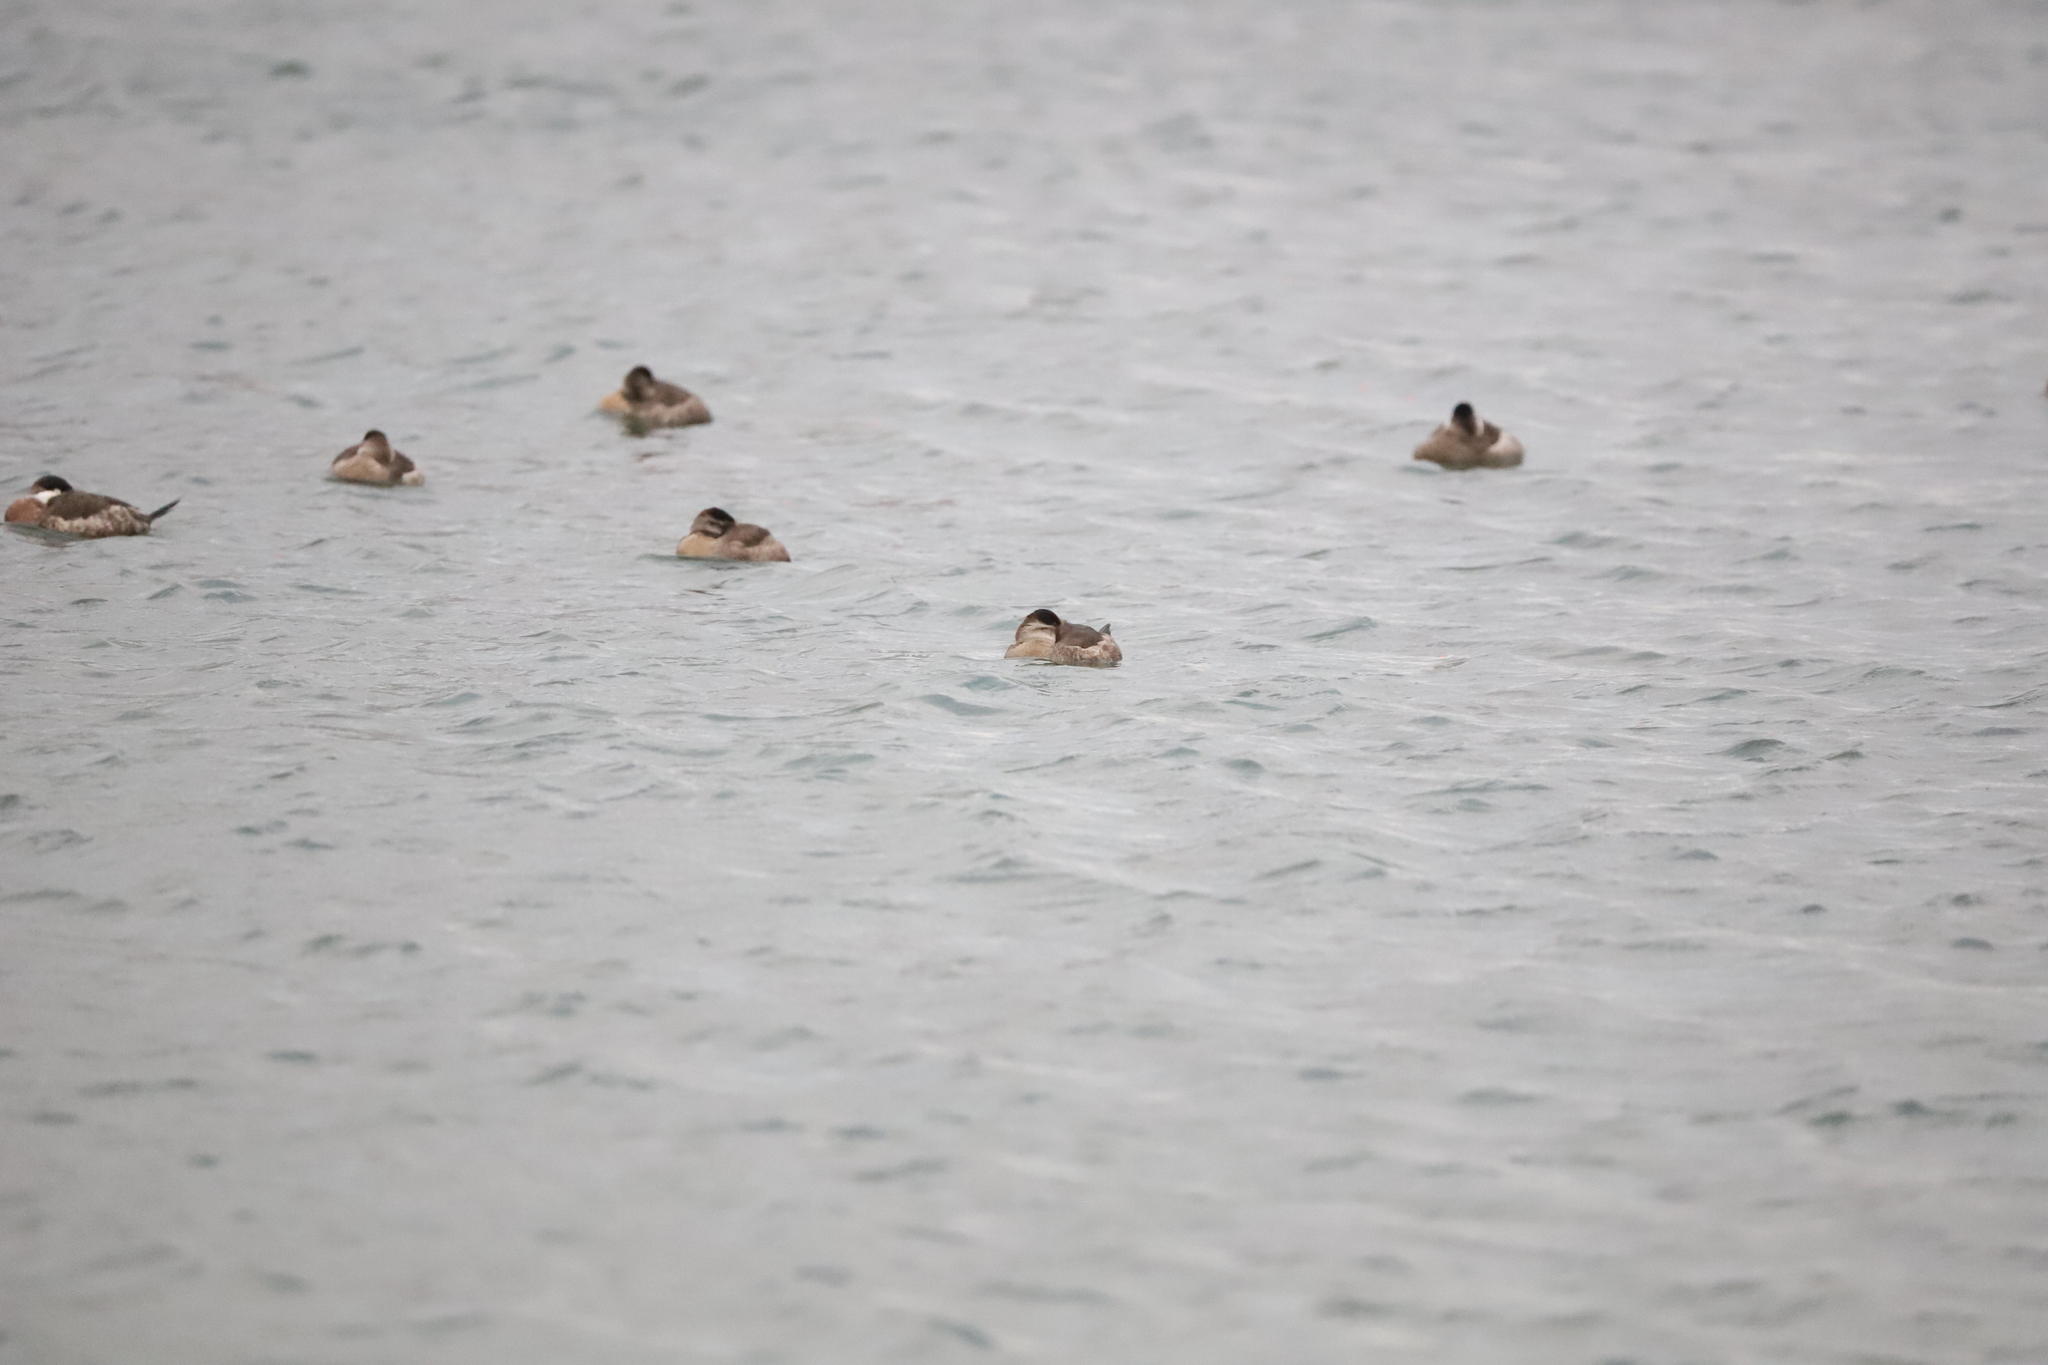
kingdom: Animalia
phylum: Chordata
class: Aves
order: Anseriformes
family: Anatidae
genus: Oxyura
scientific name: Oxyura jamaicensis
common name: Ruddy duck
